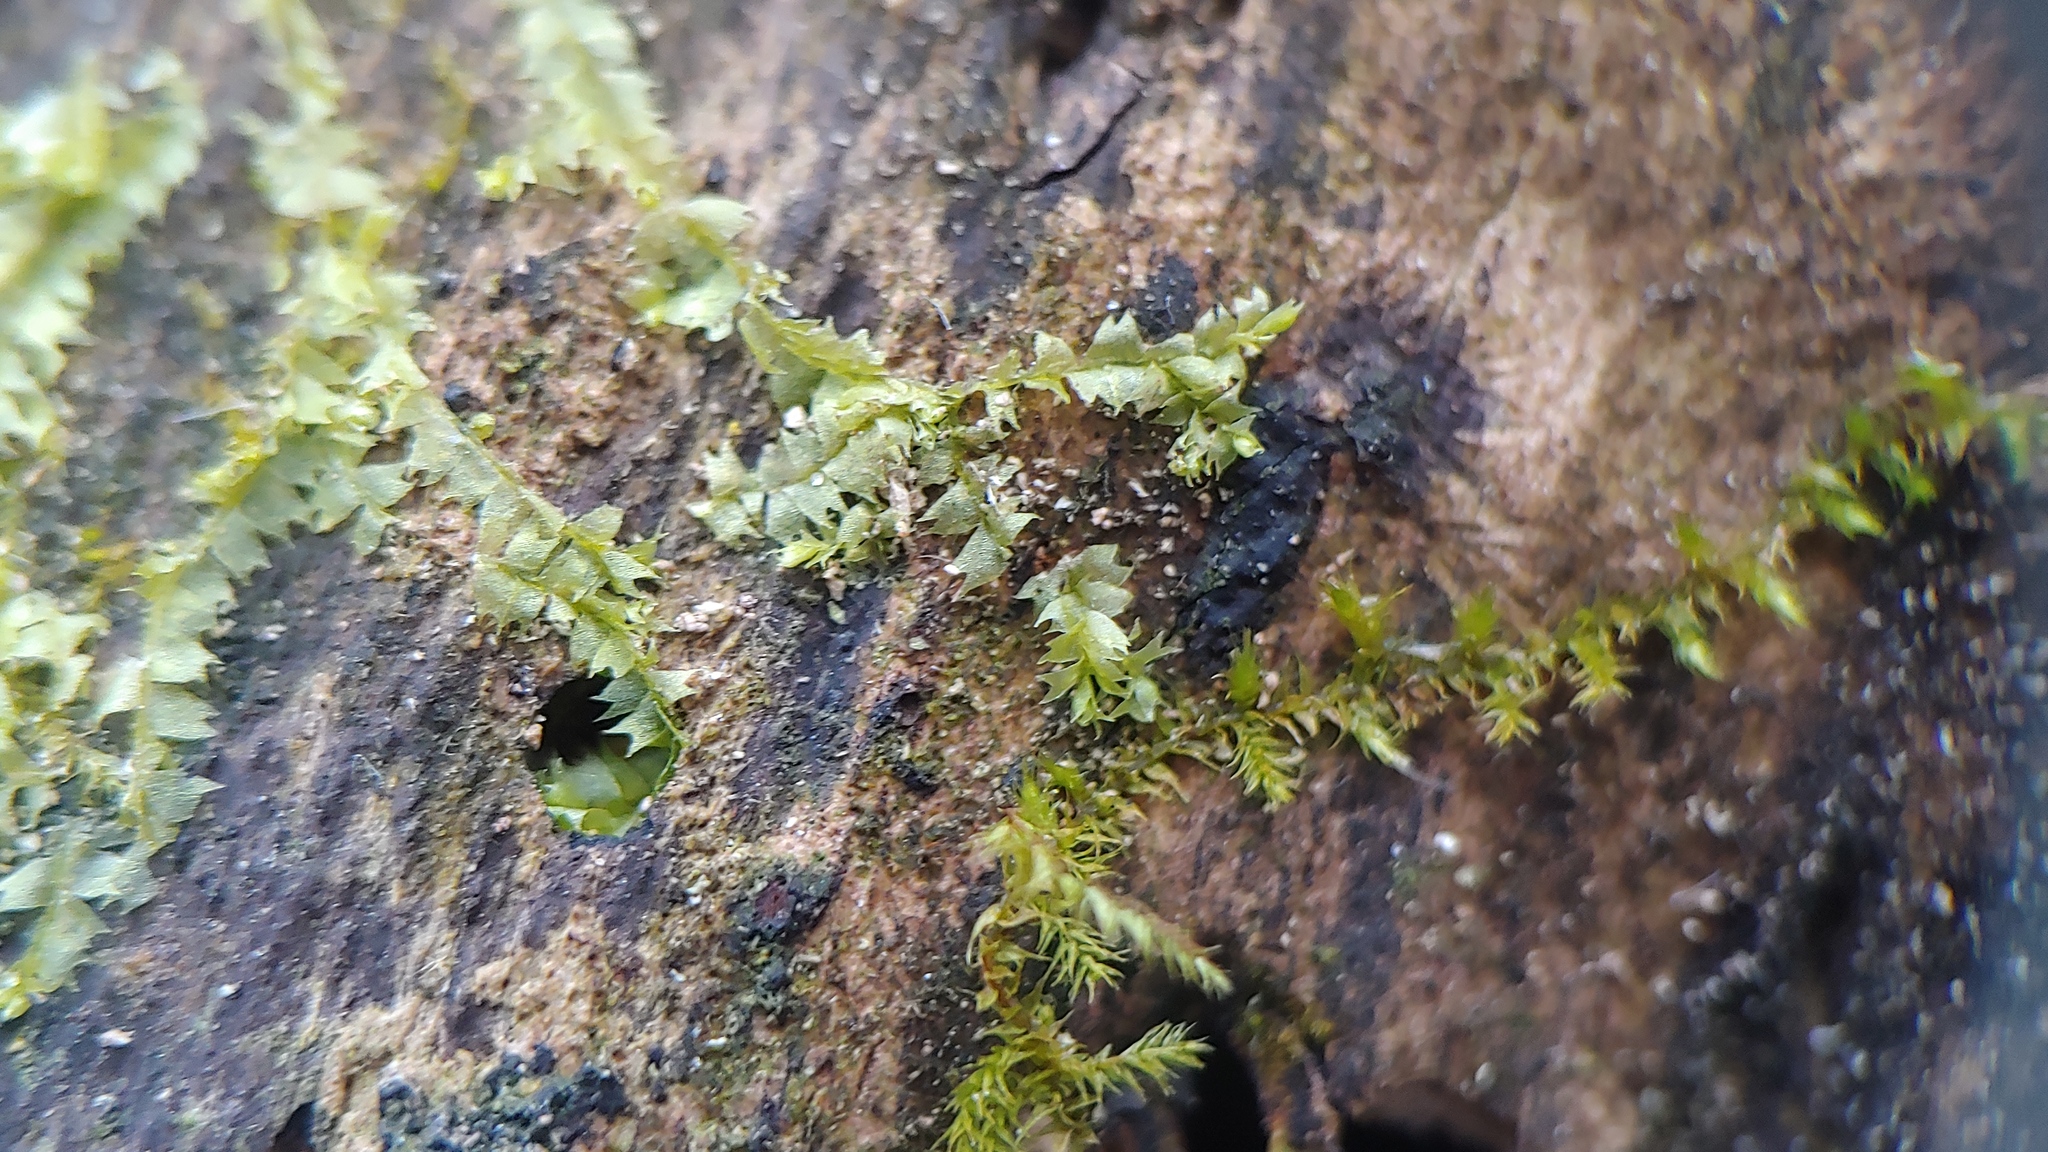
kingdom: Plantae
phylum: Marchantiophyta
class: Jungermanniopsida
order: Jungermanniales
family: Lophocoleaceae
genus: Lophocolea
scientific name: Lophocolea bidentata
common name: Bifid crestwort
